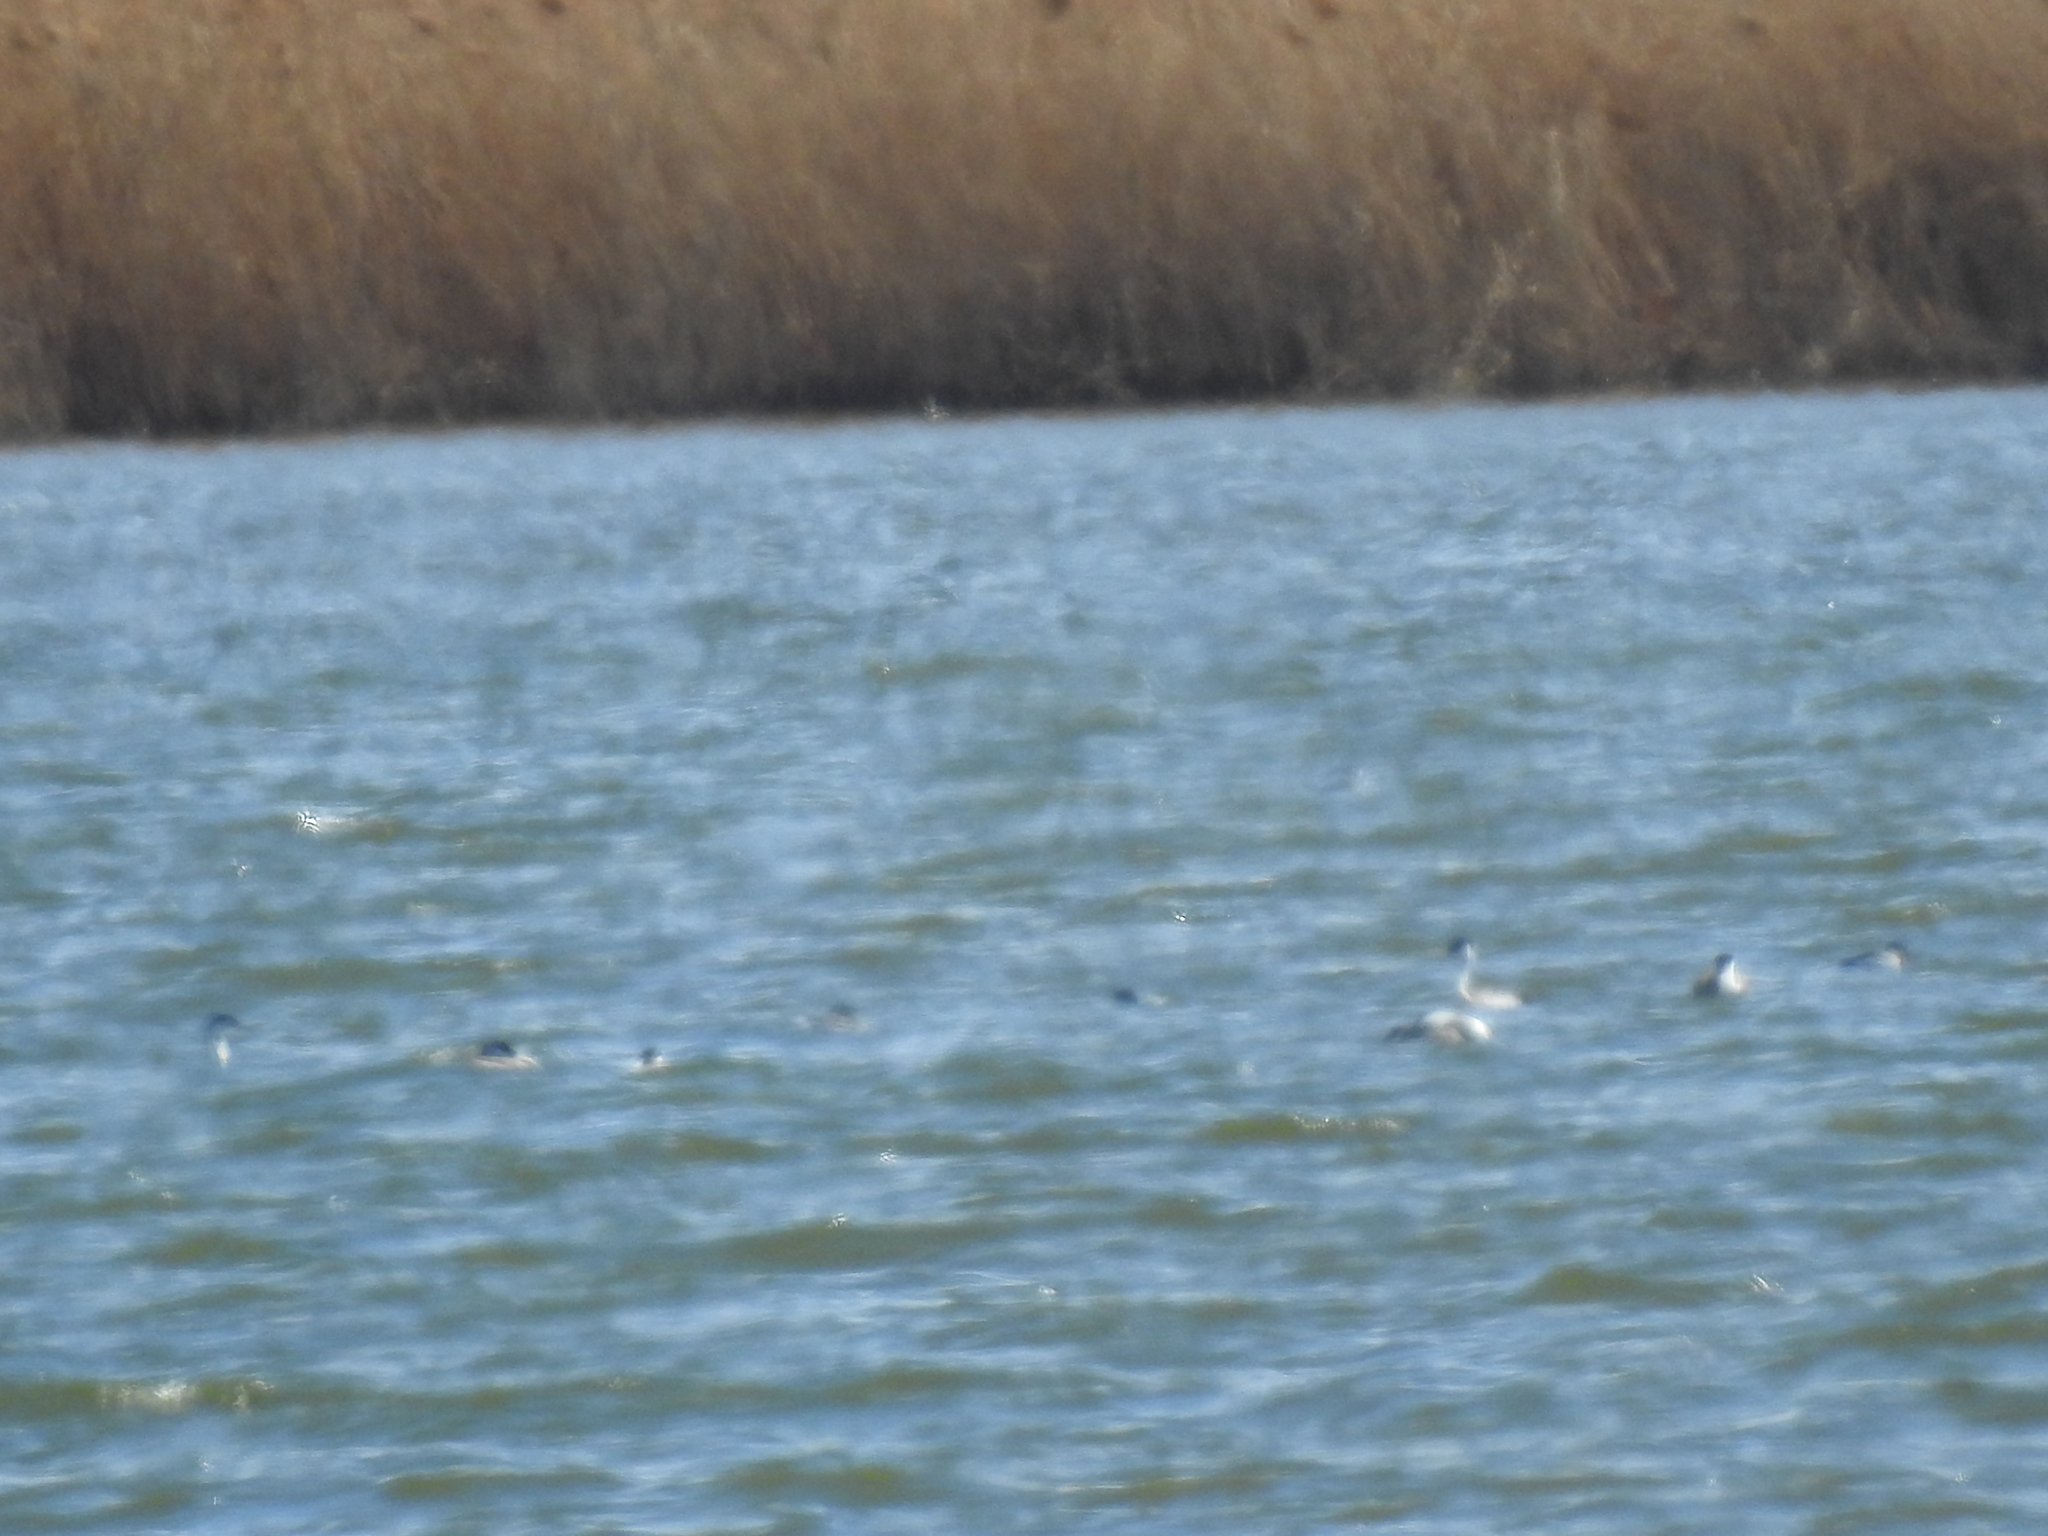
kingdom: Animalia
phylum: Chordata
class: Aves
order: Podicipediformes
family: Podicipedidae
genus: Aechmophorus
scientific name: Aechmophorus occidentalis
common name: Western grebe
